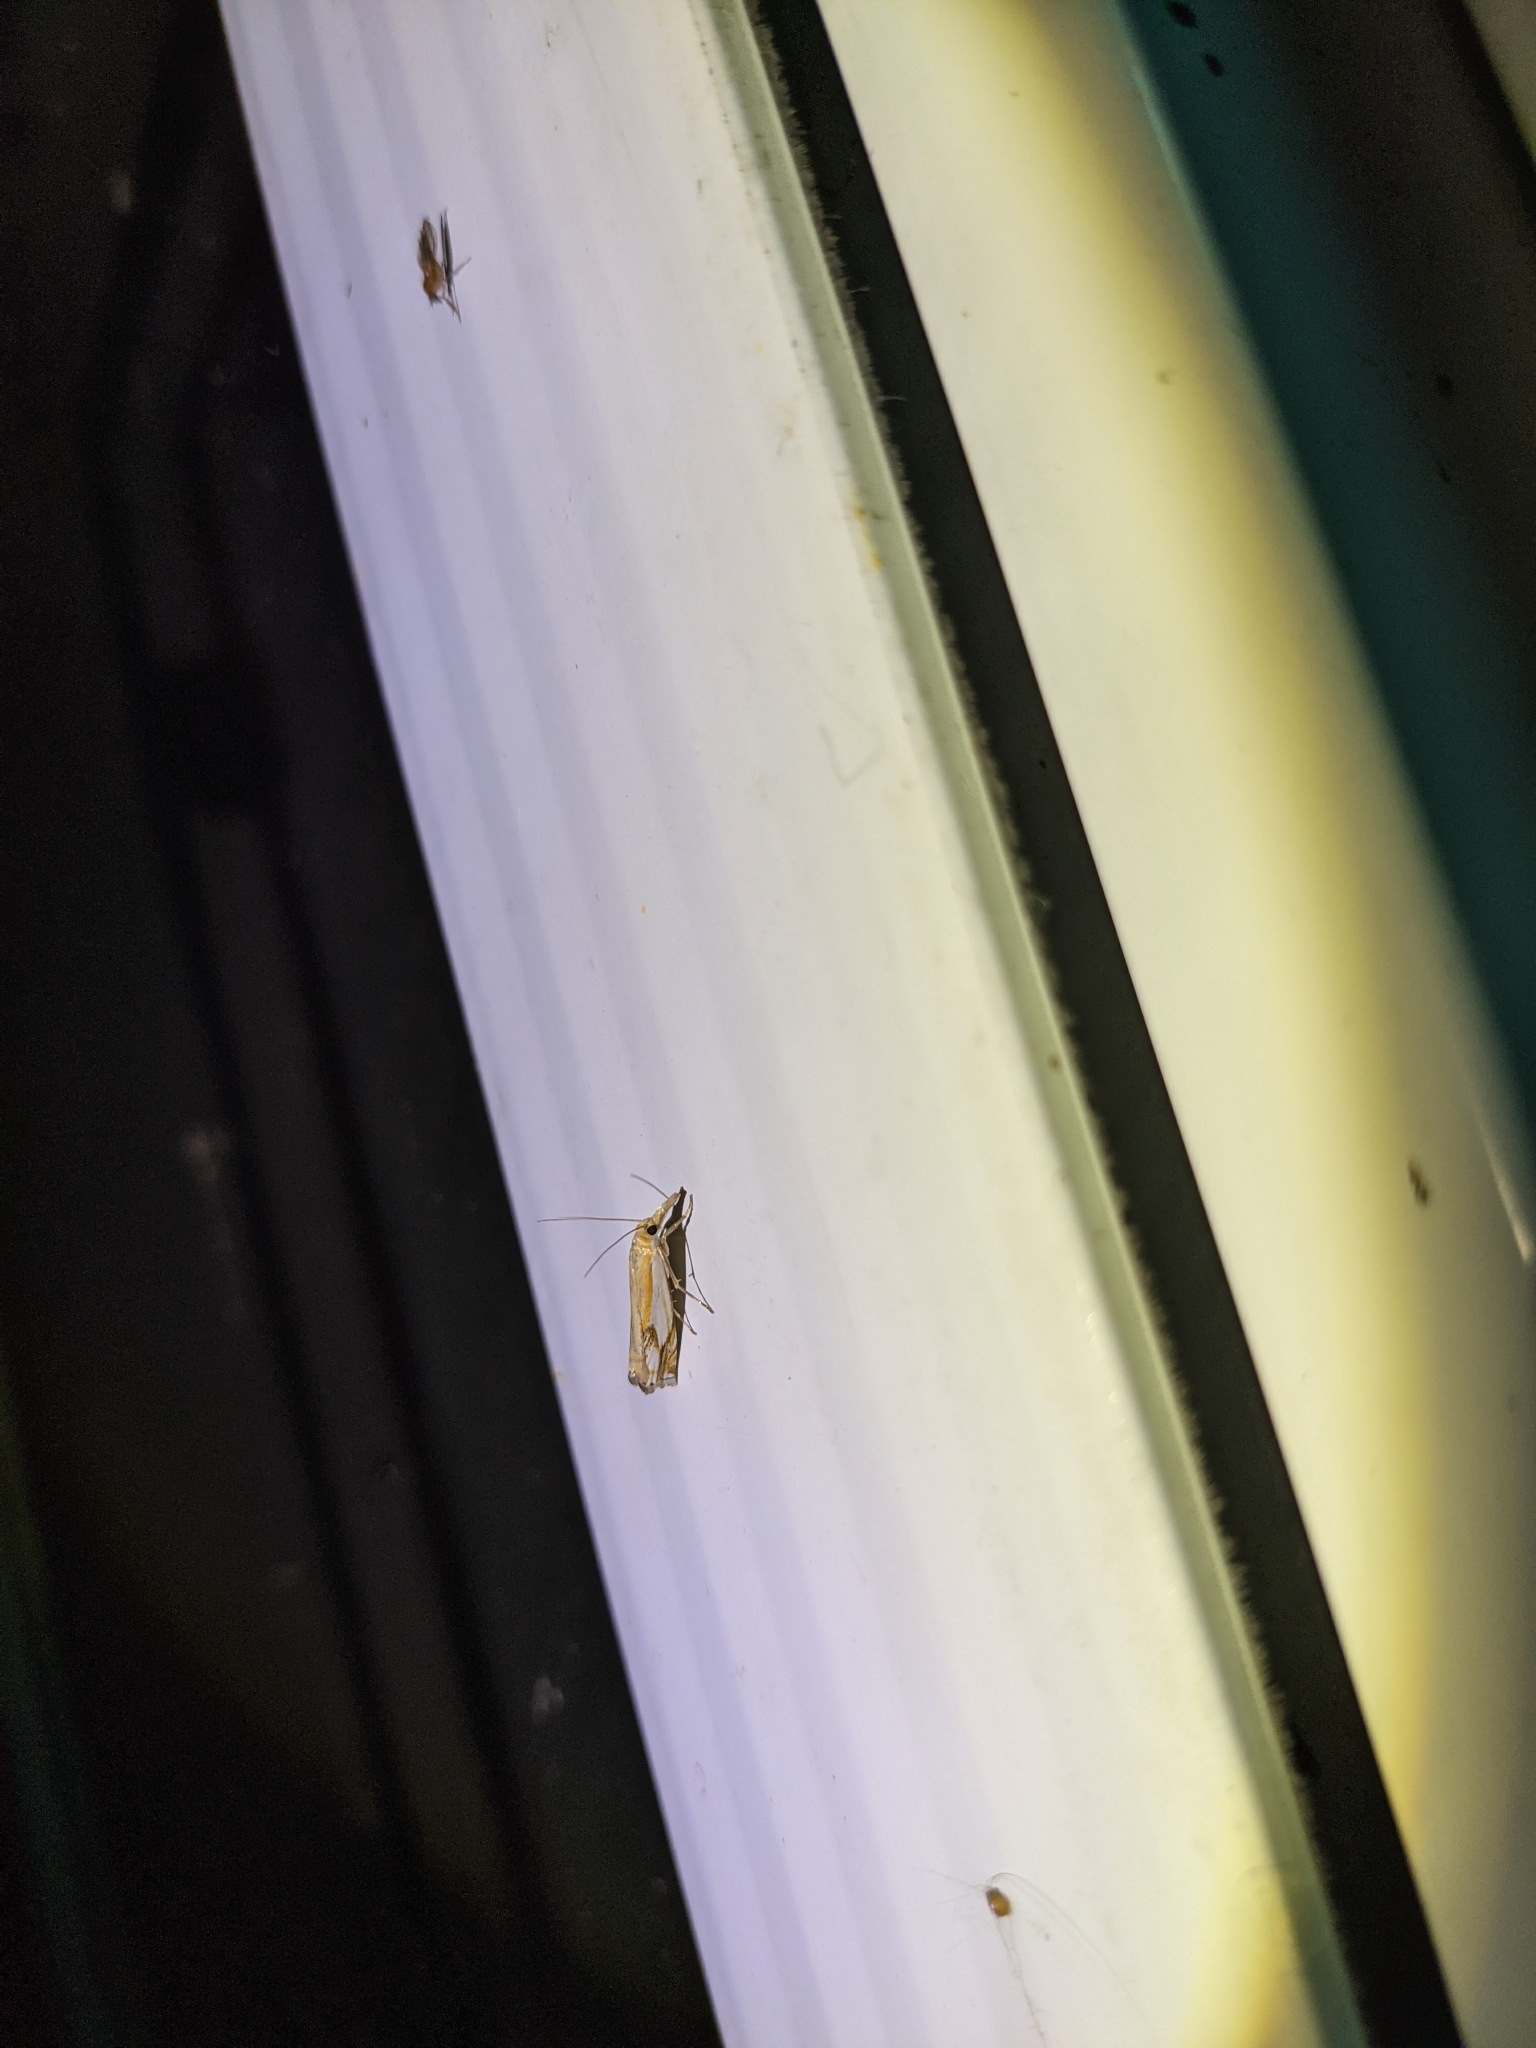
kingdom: Animalia
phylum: Arthropoda
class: Insecta
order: Lepidoptera
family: Crambidae
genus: Crambus
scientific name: Crambus agitatellus
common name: Double-banded grass-veneer
